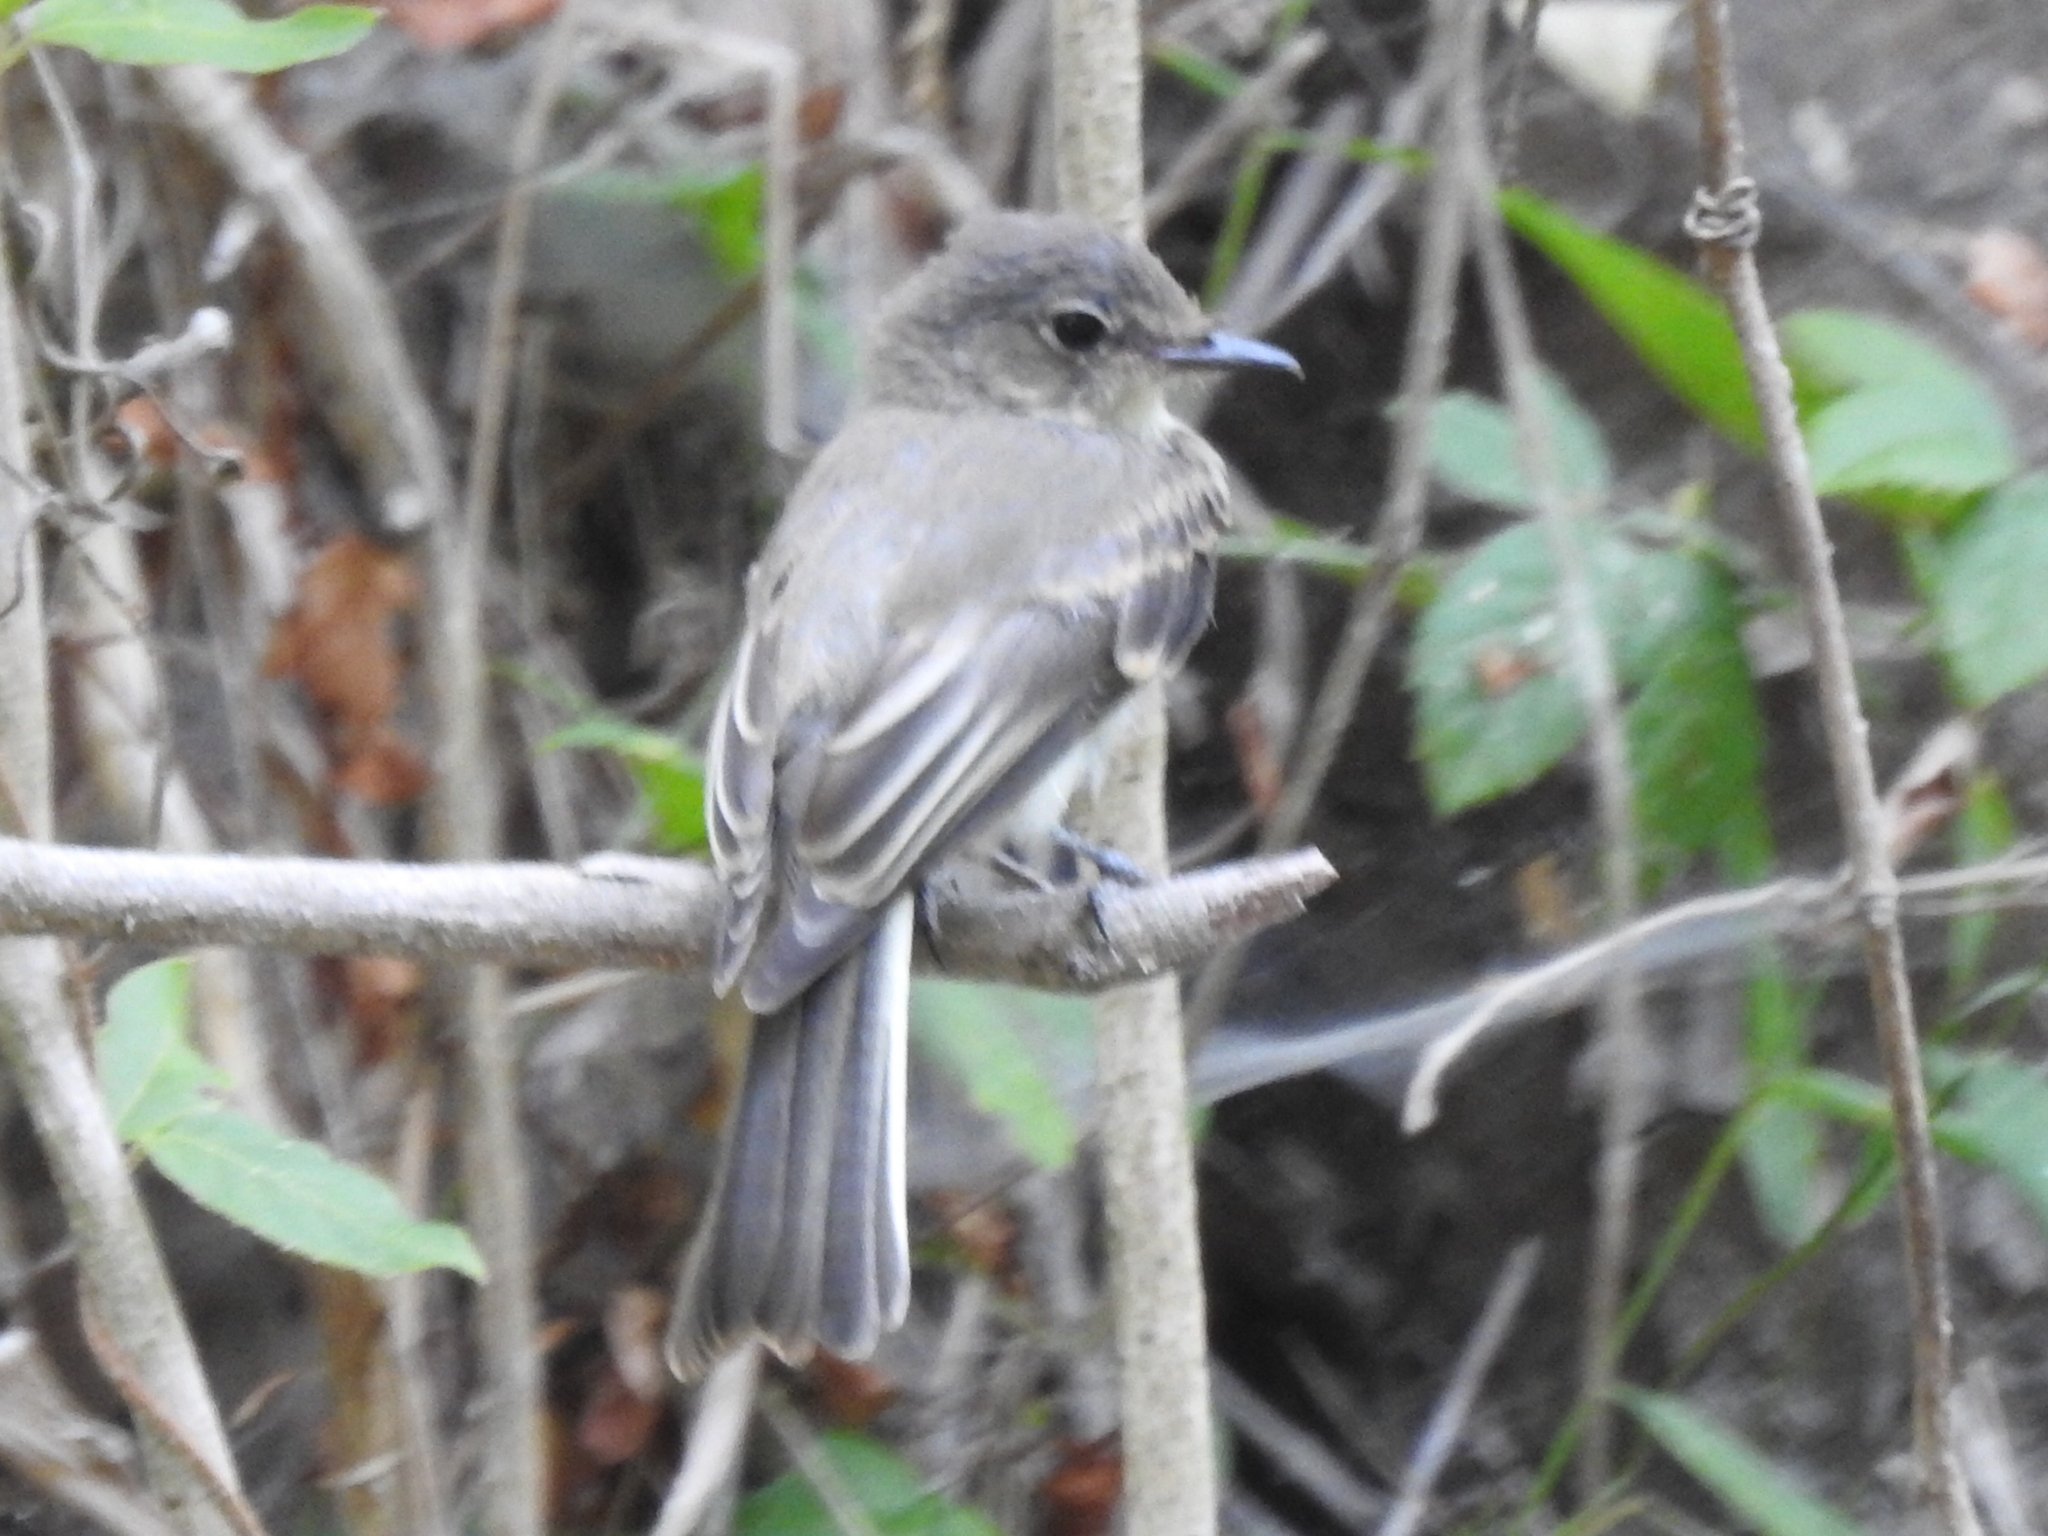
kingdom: Animalia
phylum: Chordata
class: Aves
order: Passeriformes
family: Tyrannidae
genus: Sayornis
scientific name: Sayornis phoebe
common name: Eastern phoebe
